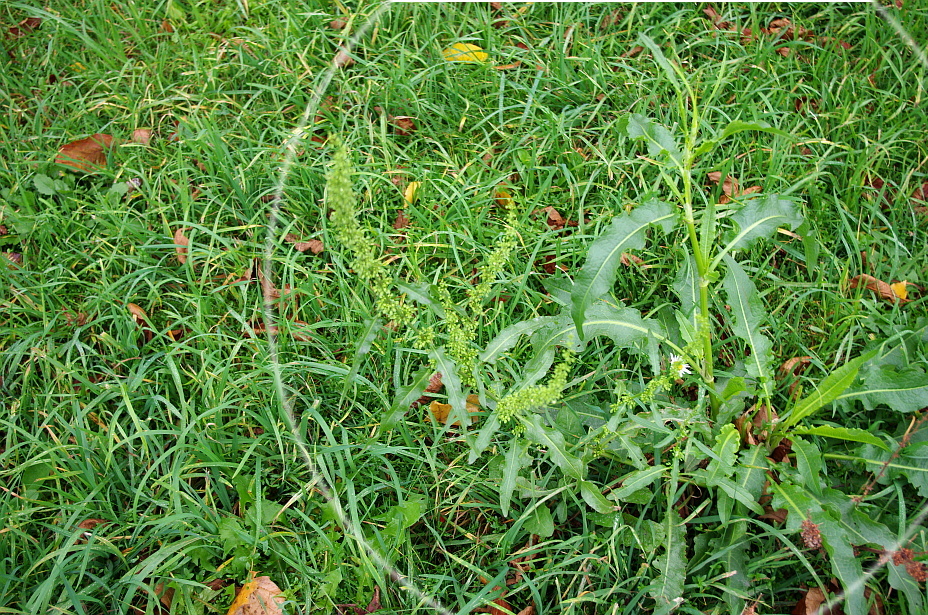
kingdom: Plantae
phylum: Tracheophyta
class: Magnoliopsida
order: Caryophyllales
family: Polygonaceae
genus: Rumex
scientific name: Rumex crispus
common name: Curled dock
